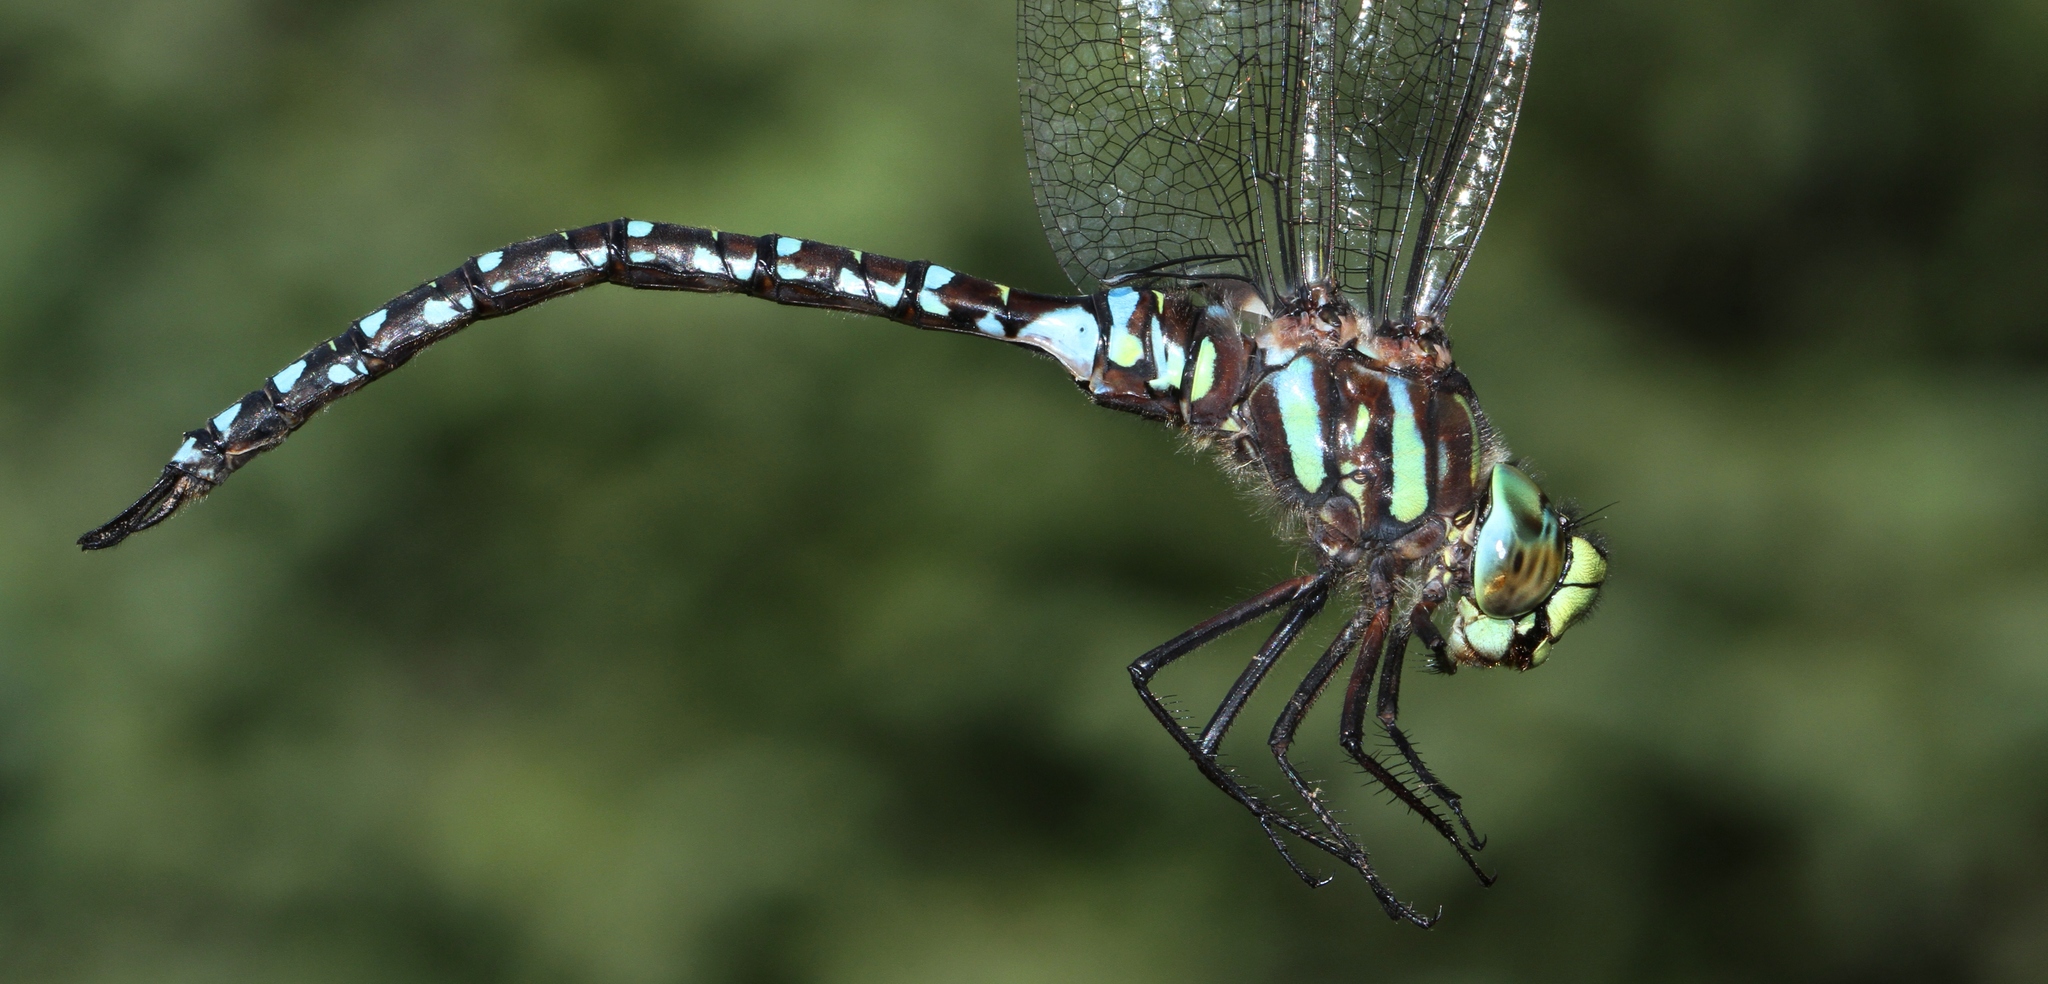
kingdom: Animalia
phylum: Arthropoda
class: Insecta
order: Odonata
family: Aeshnidae
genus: Aeshna
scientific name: Aeshna juncea
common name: Moorland hawker
